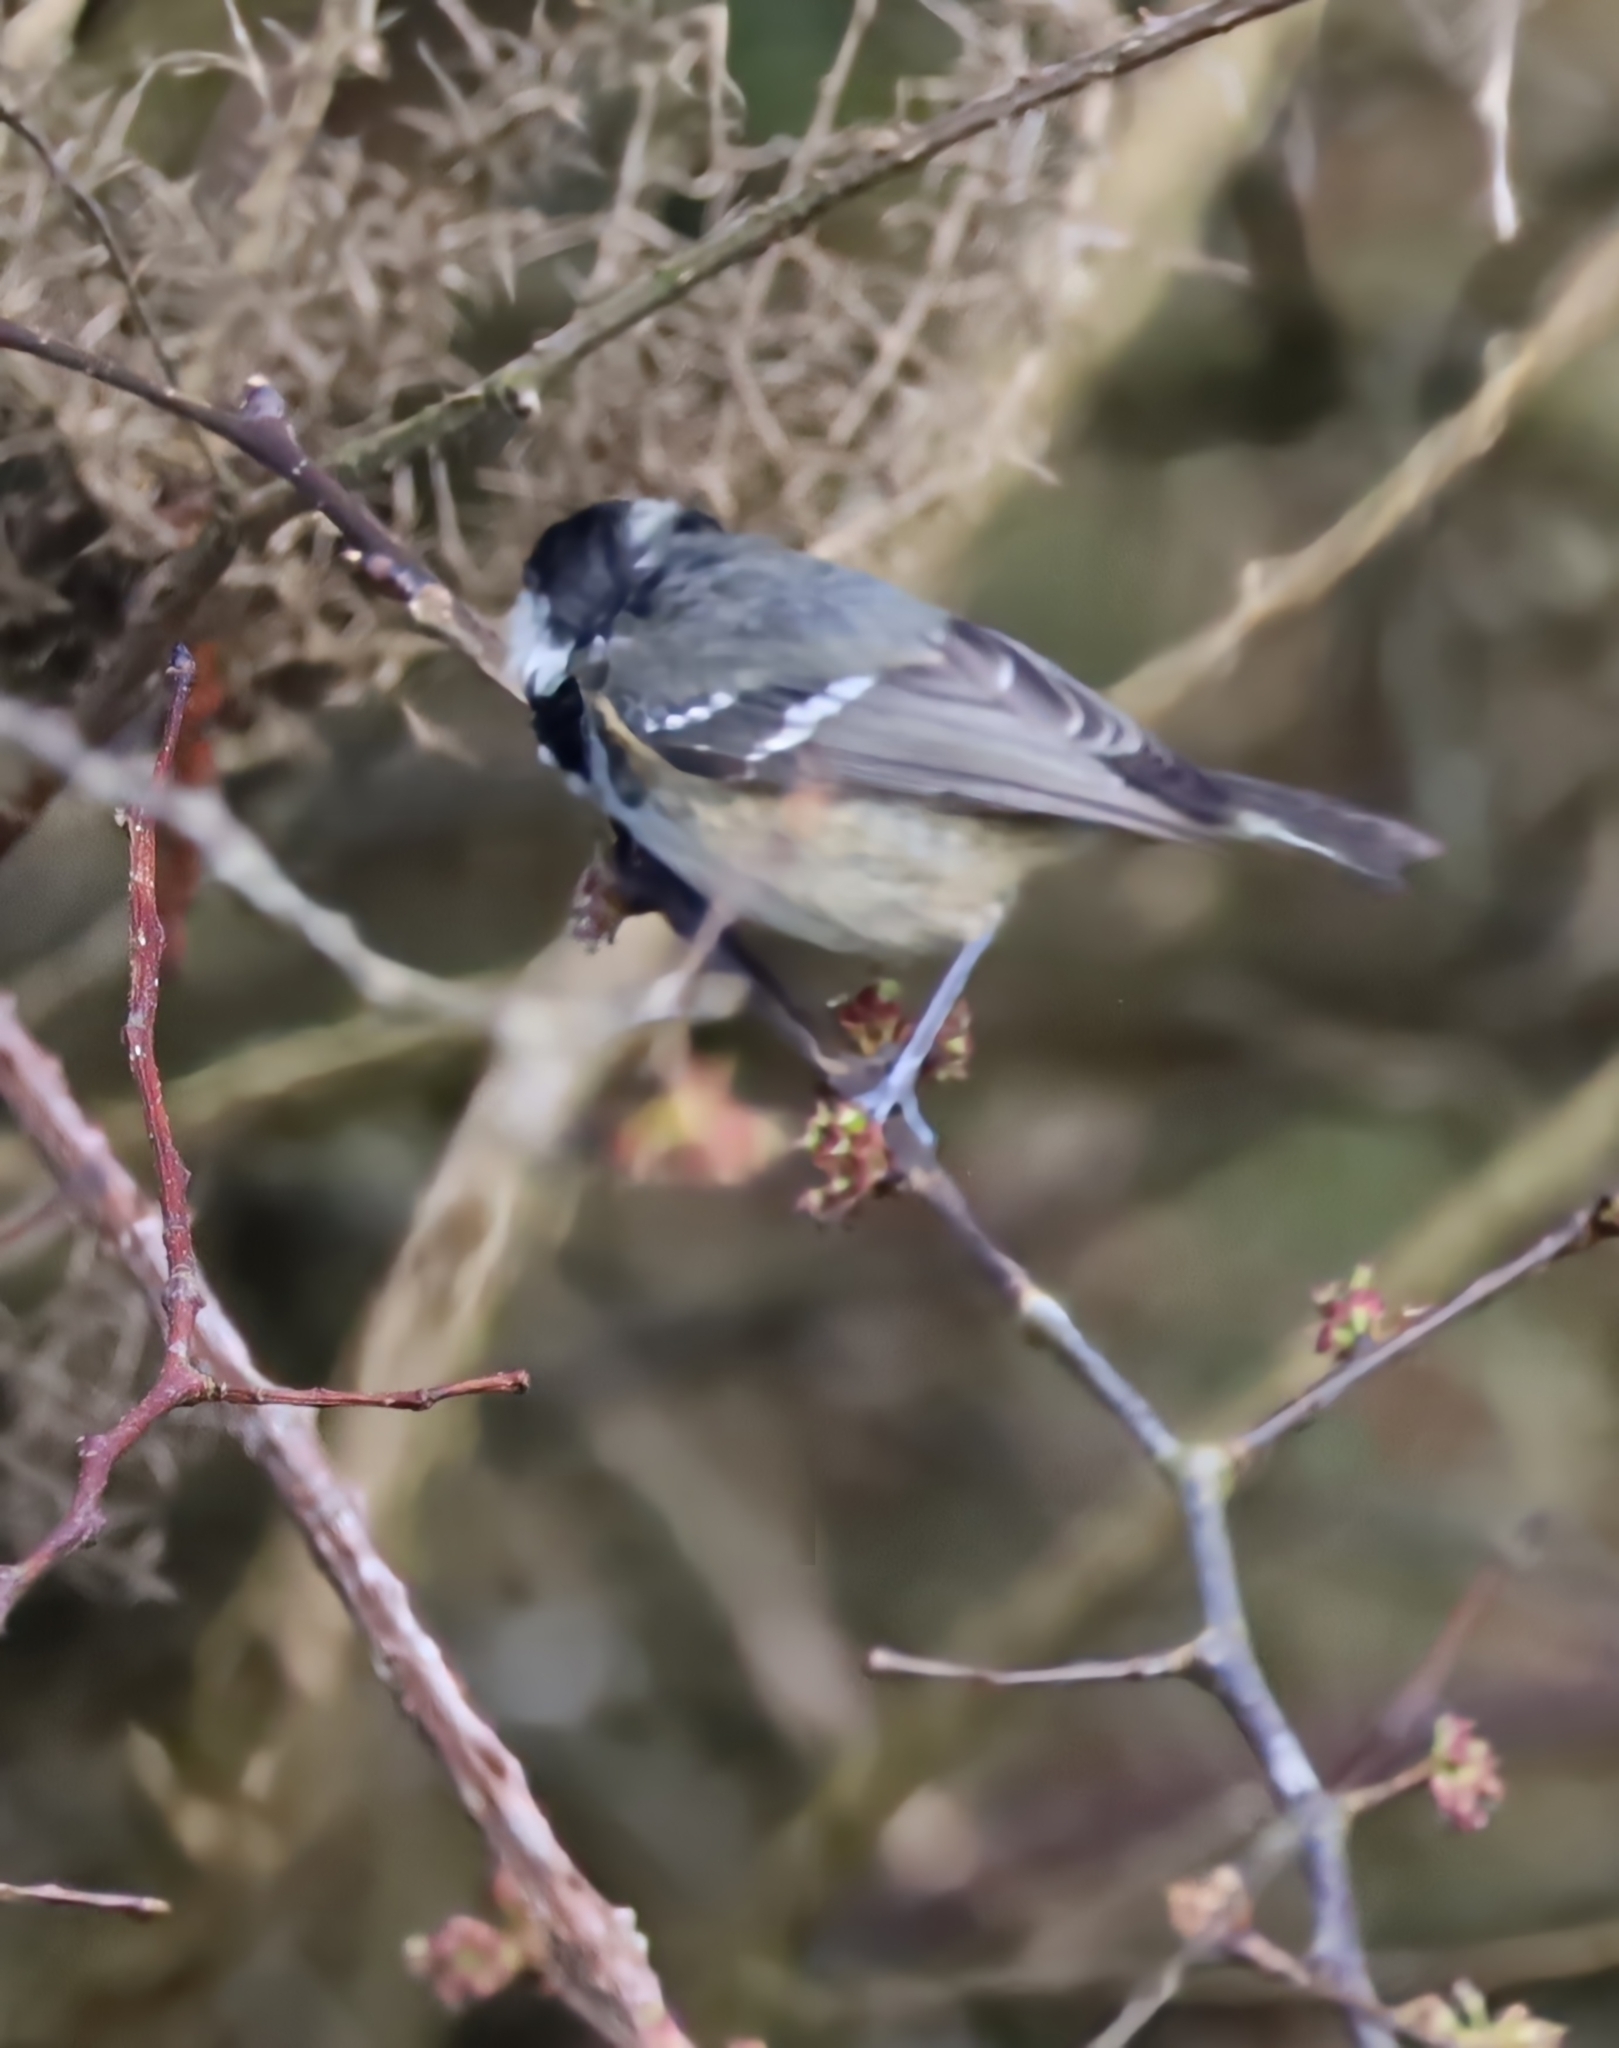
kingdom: Animalia
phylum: Chordata
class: Aves
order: Passeriformes
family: Paridae
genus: Periparus
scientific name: Periparus ater
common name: Coal tit
